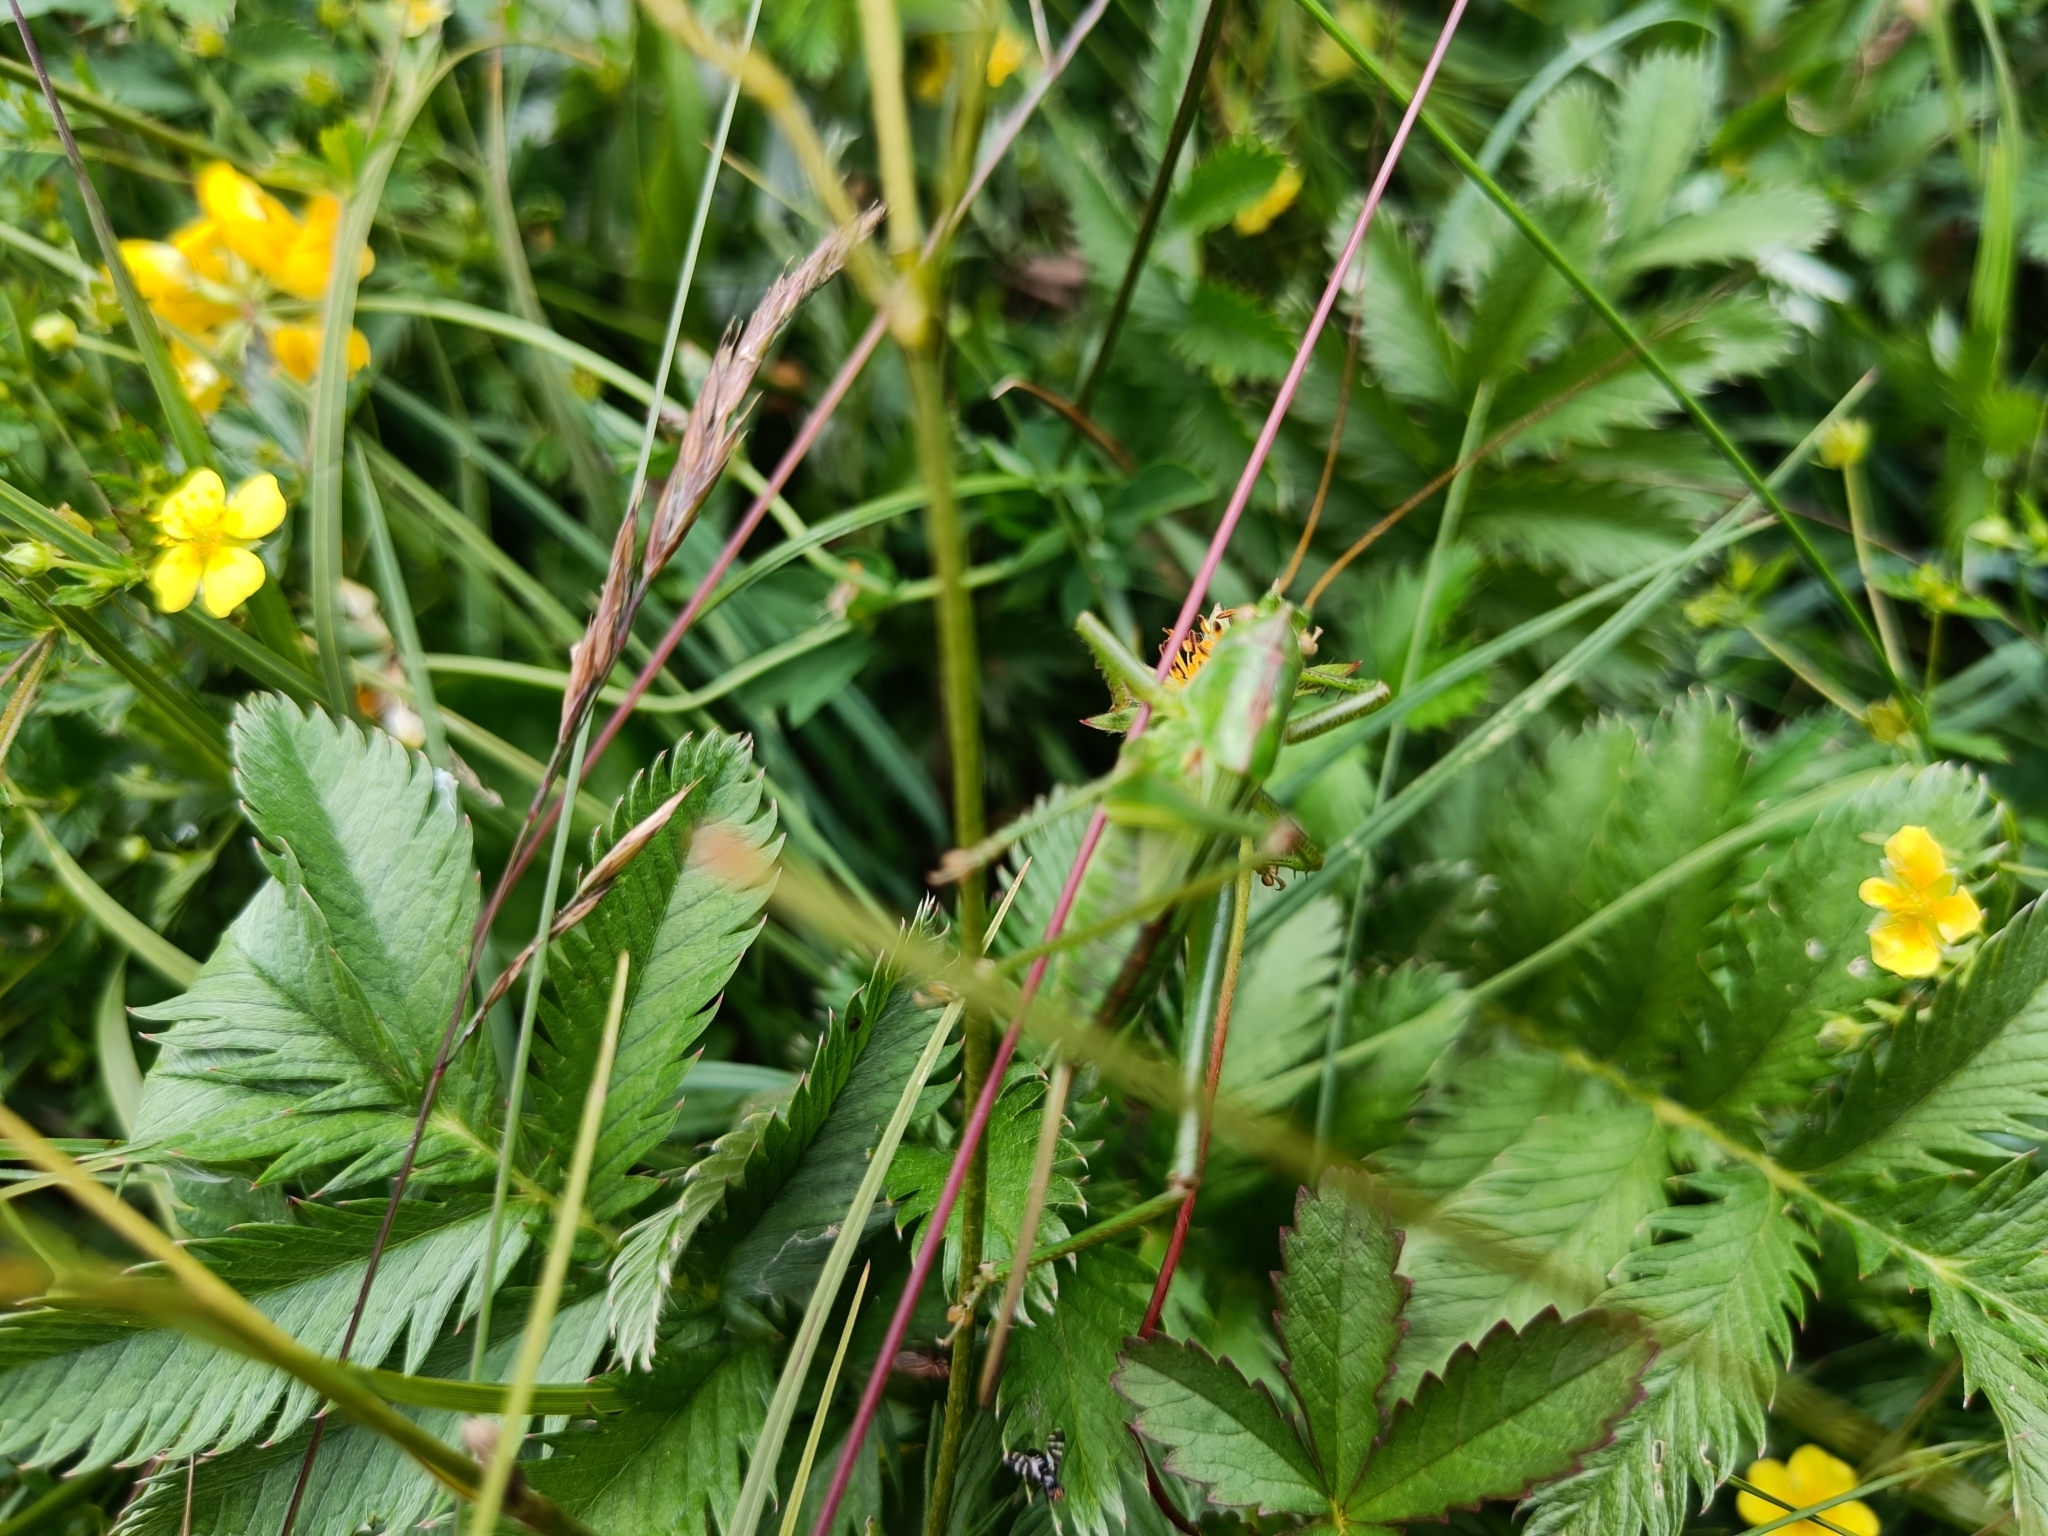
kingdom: Animalia
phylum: Arthropoda
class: Insecta
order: Orthoptera
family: Tettigoniidae
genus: Tettigonia
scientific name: Tettigonia viridissima
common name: Great green bush-cricket
